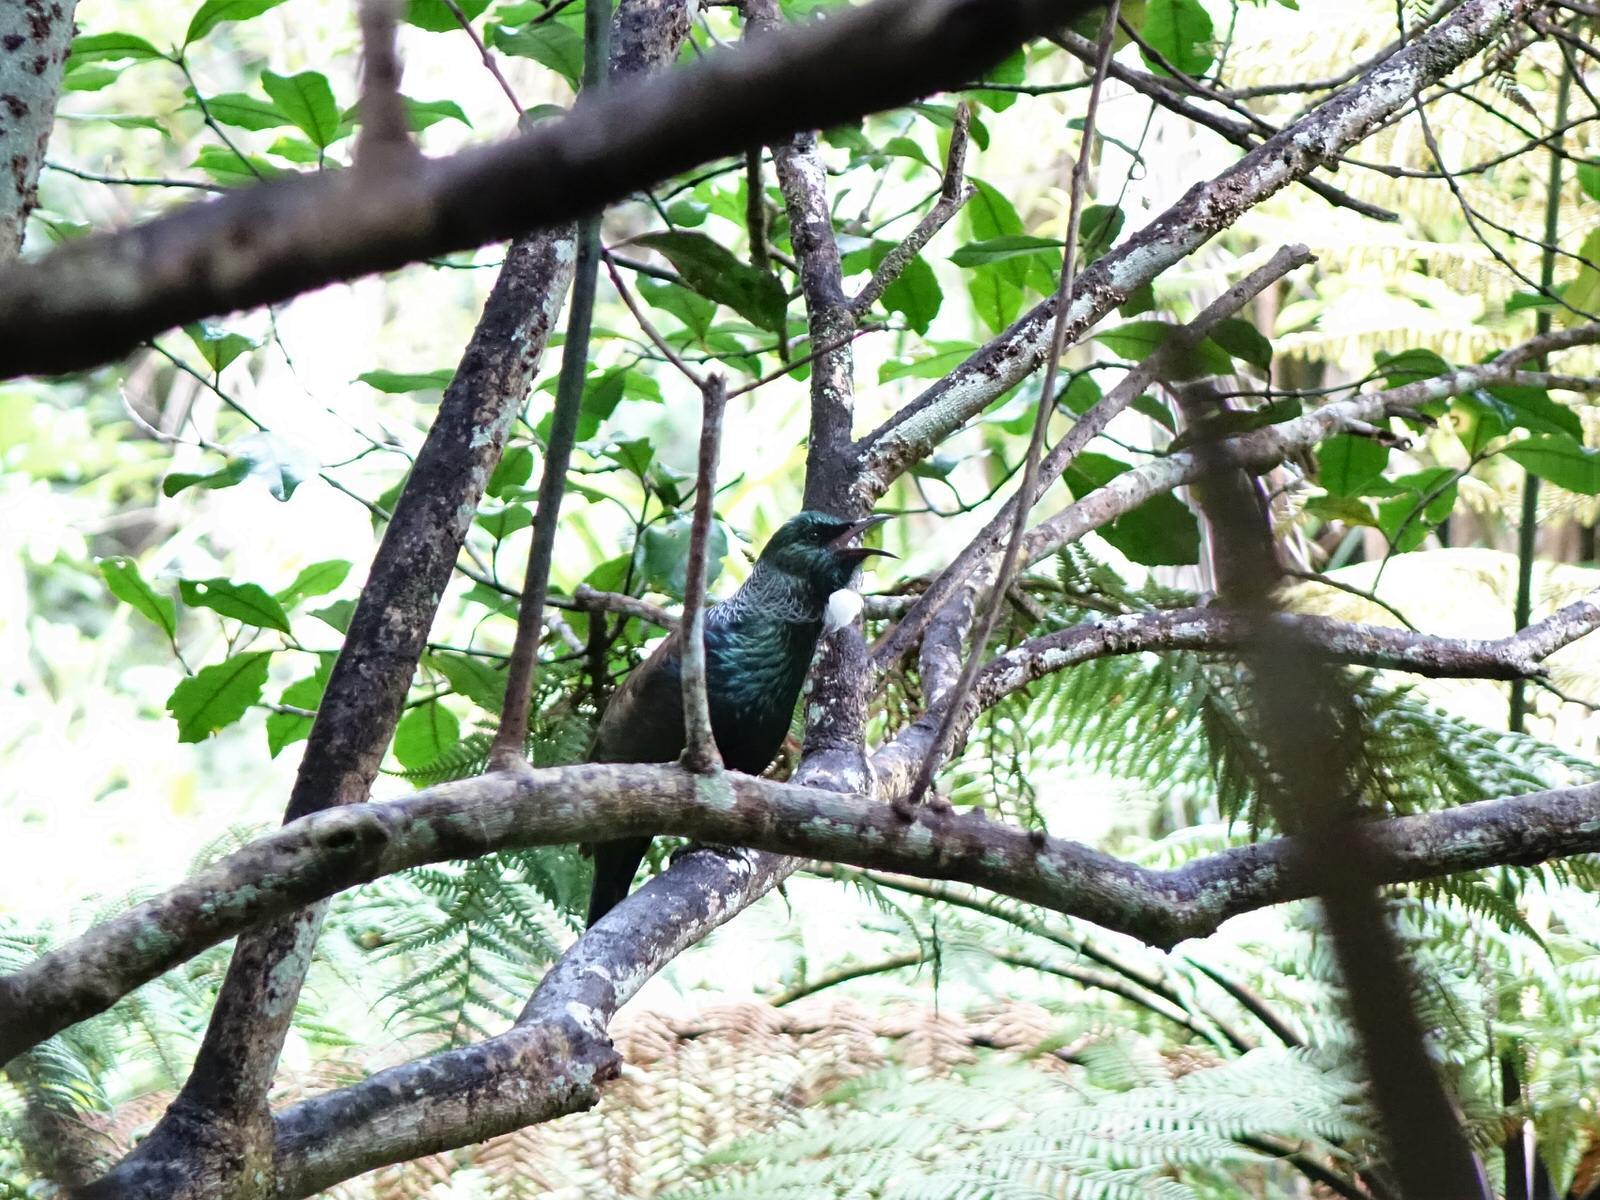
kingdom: Animalia
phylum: Chordata
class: Aves
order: Passeriformes
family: Meliphagidae
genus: Prosthemadera
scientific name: Prosthemadera novaeseelandiae
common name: Tui
